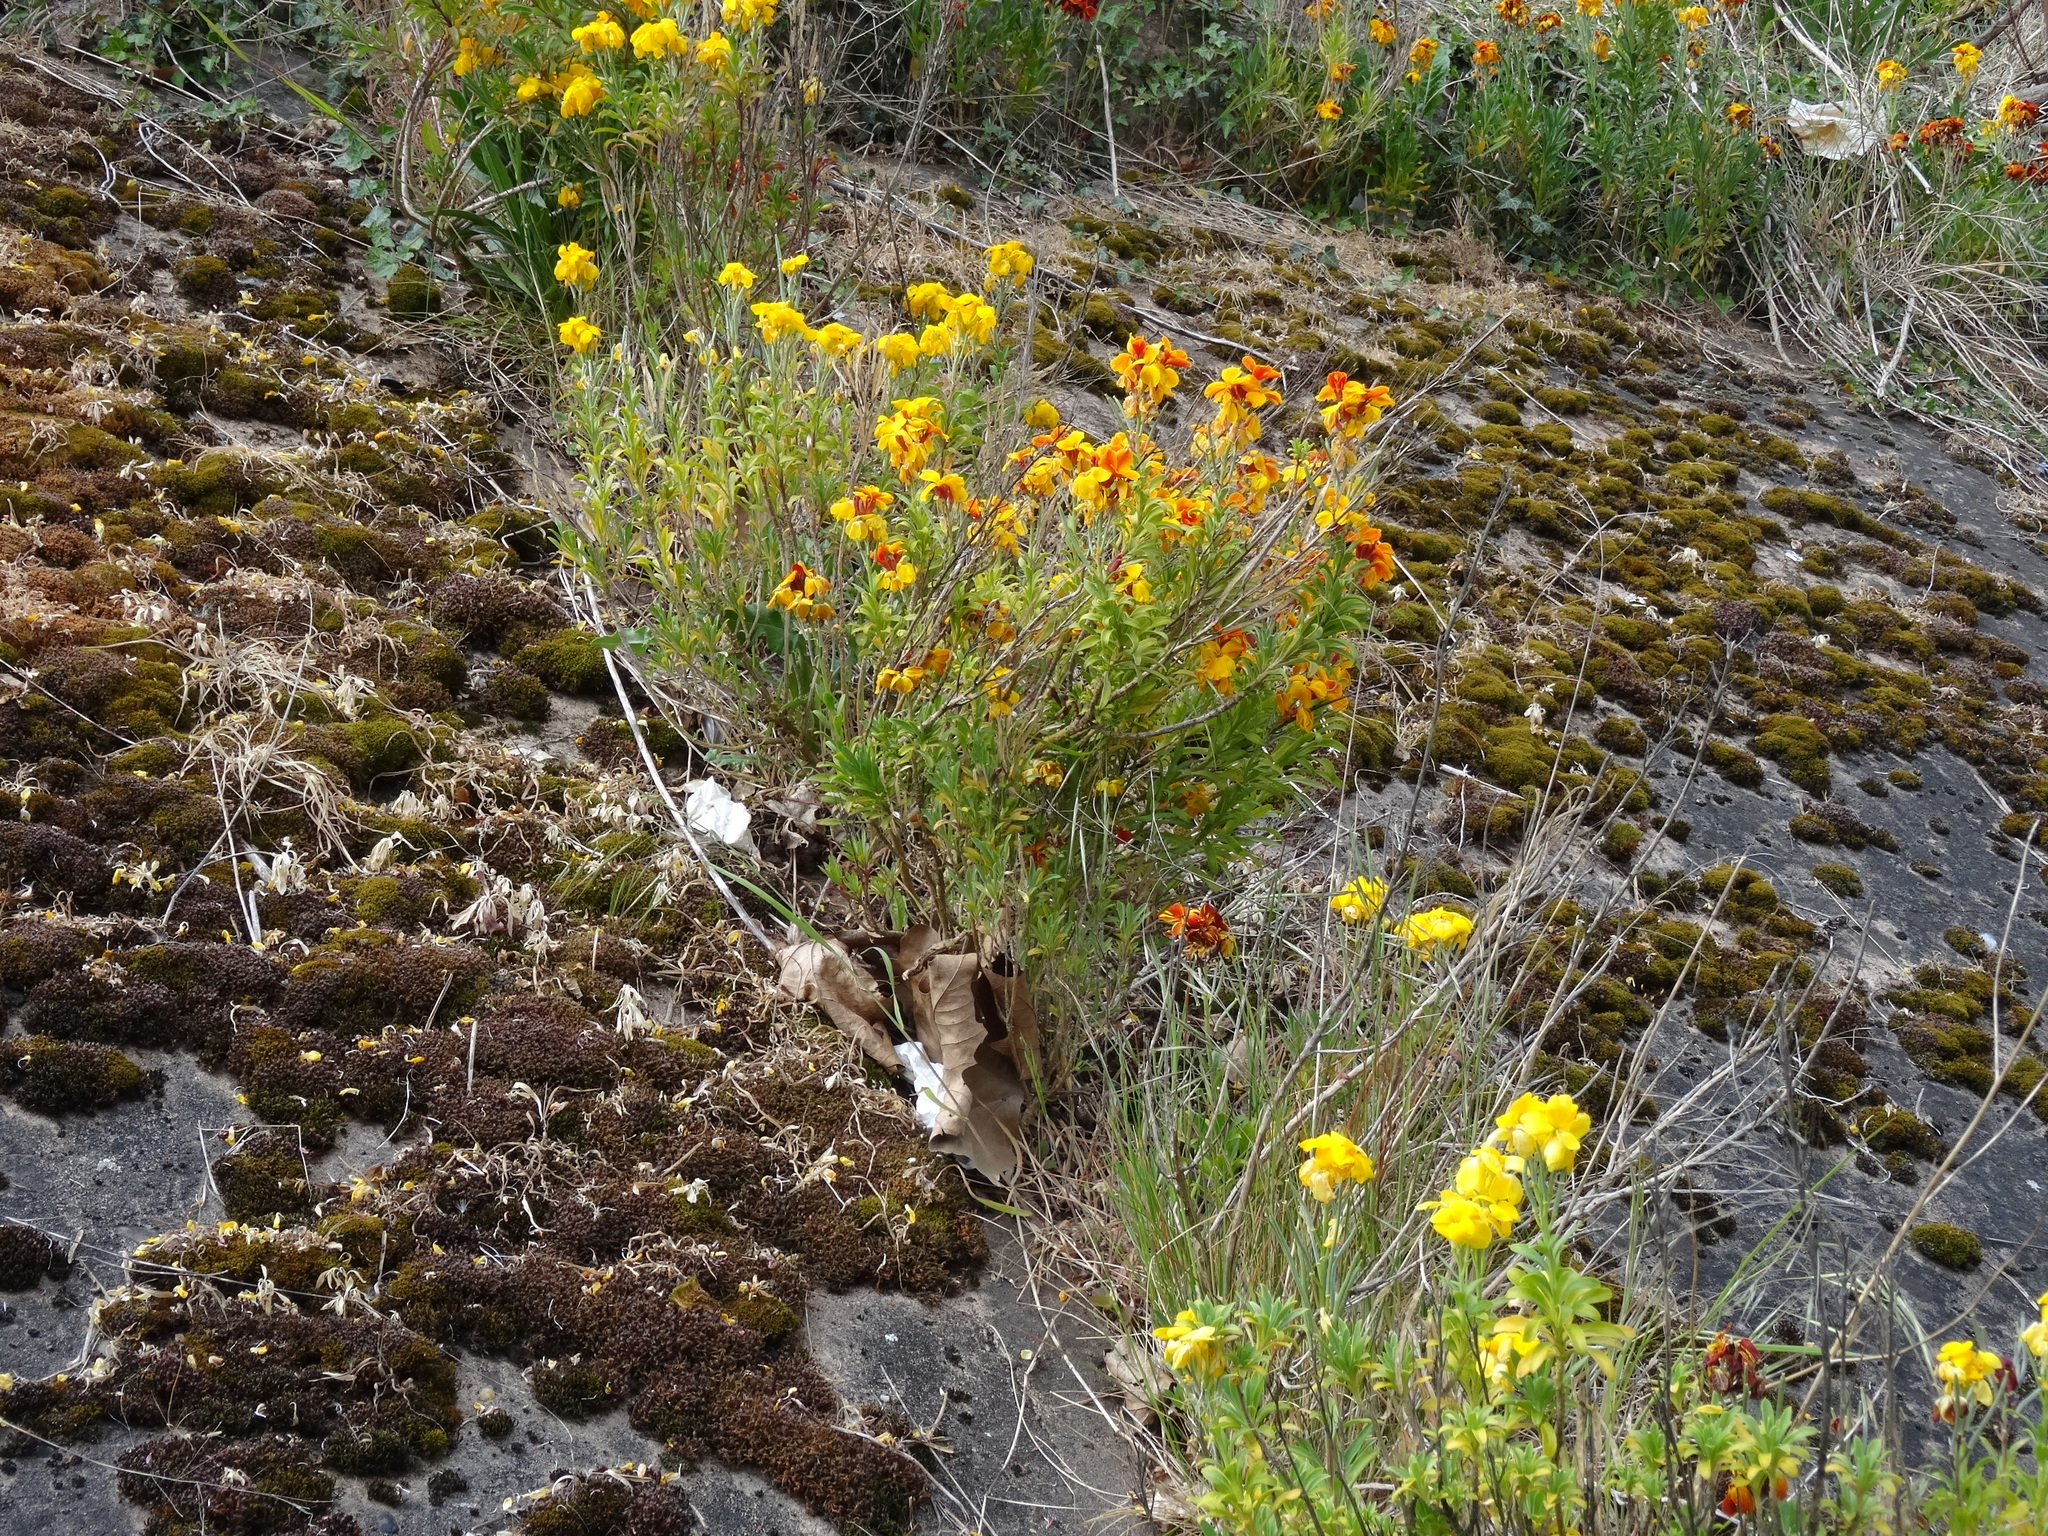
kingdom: Plantae
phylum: Tracheophyta
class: Magnoliopsida
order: Brassicales
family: Brassicaceae
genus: Erysimum
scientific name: Erysimum cheiri
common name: Wallflower
